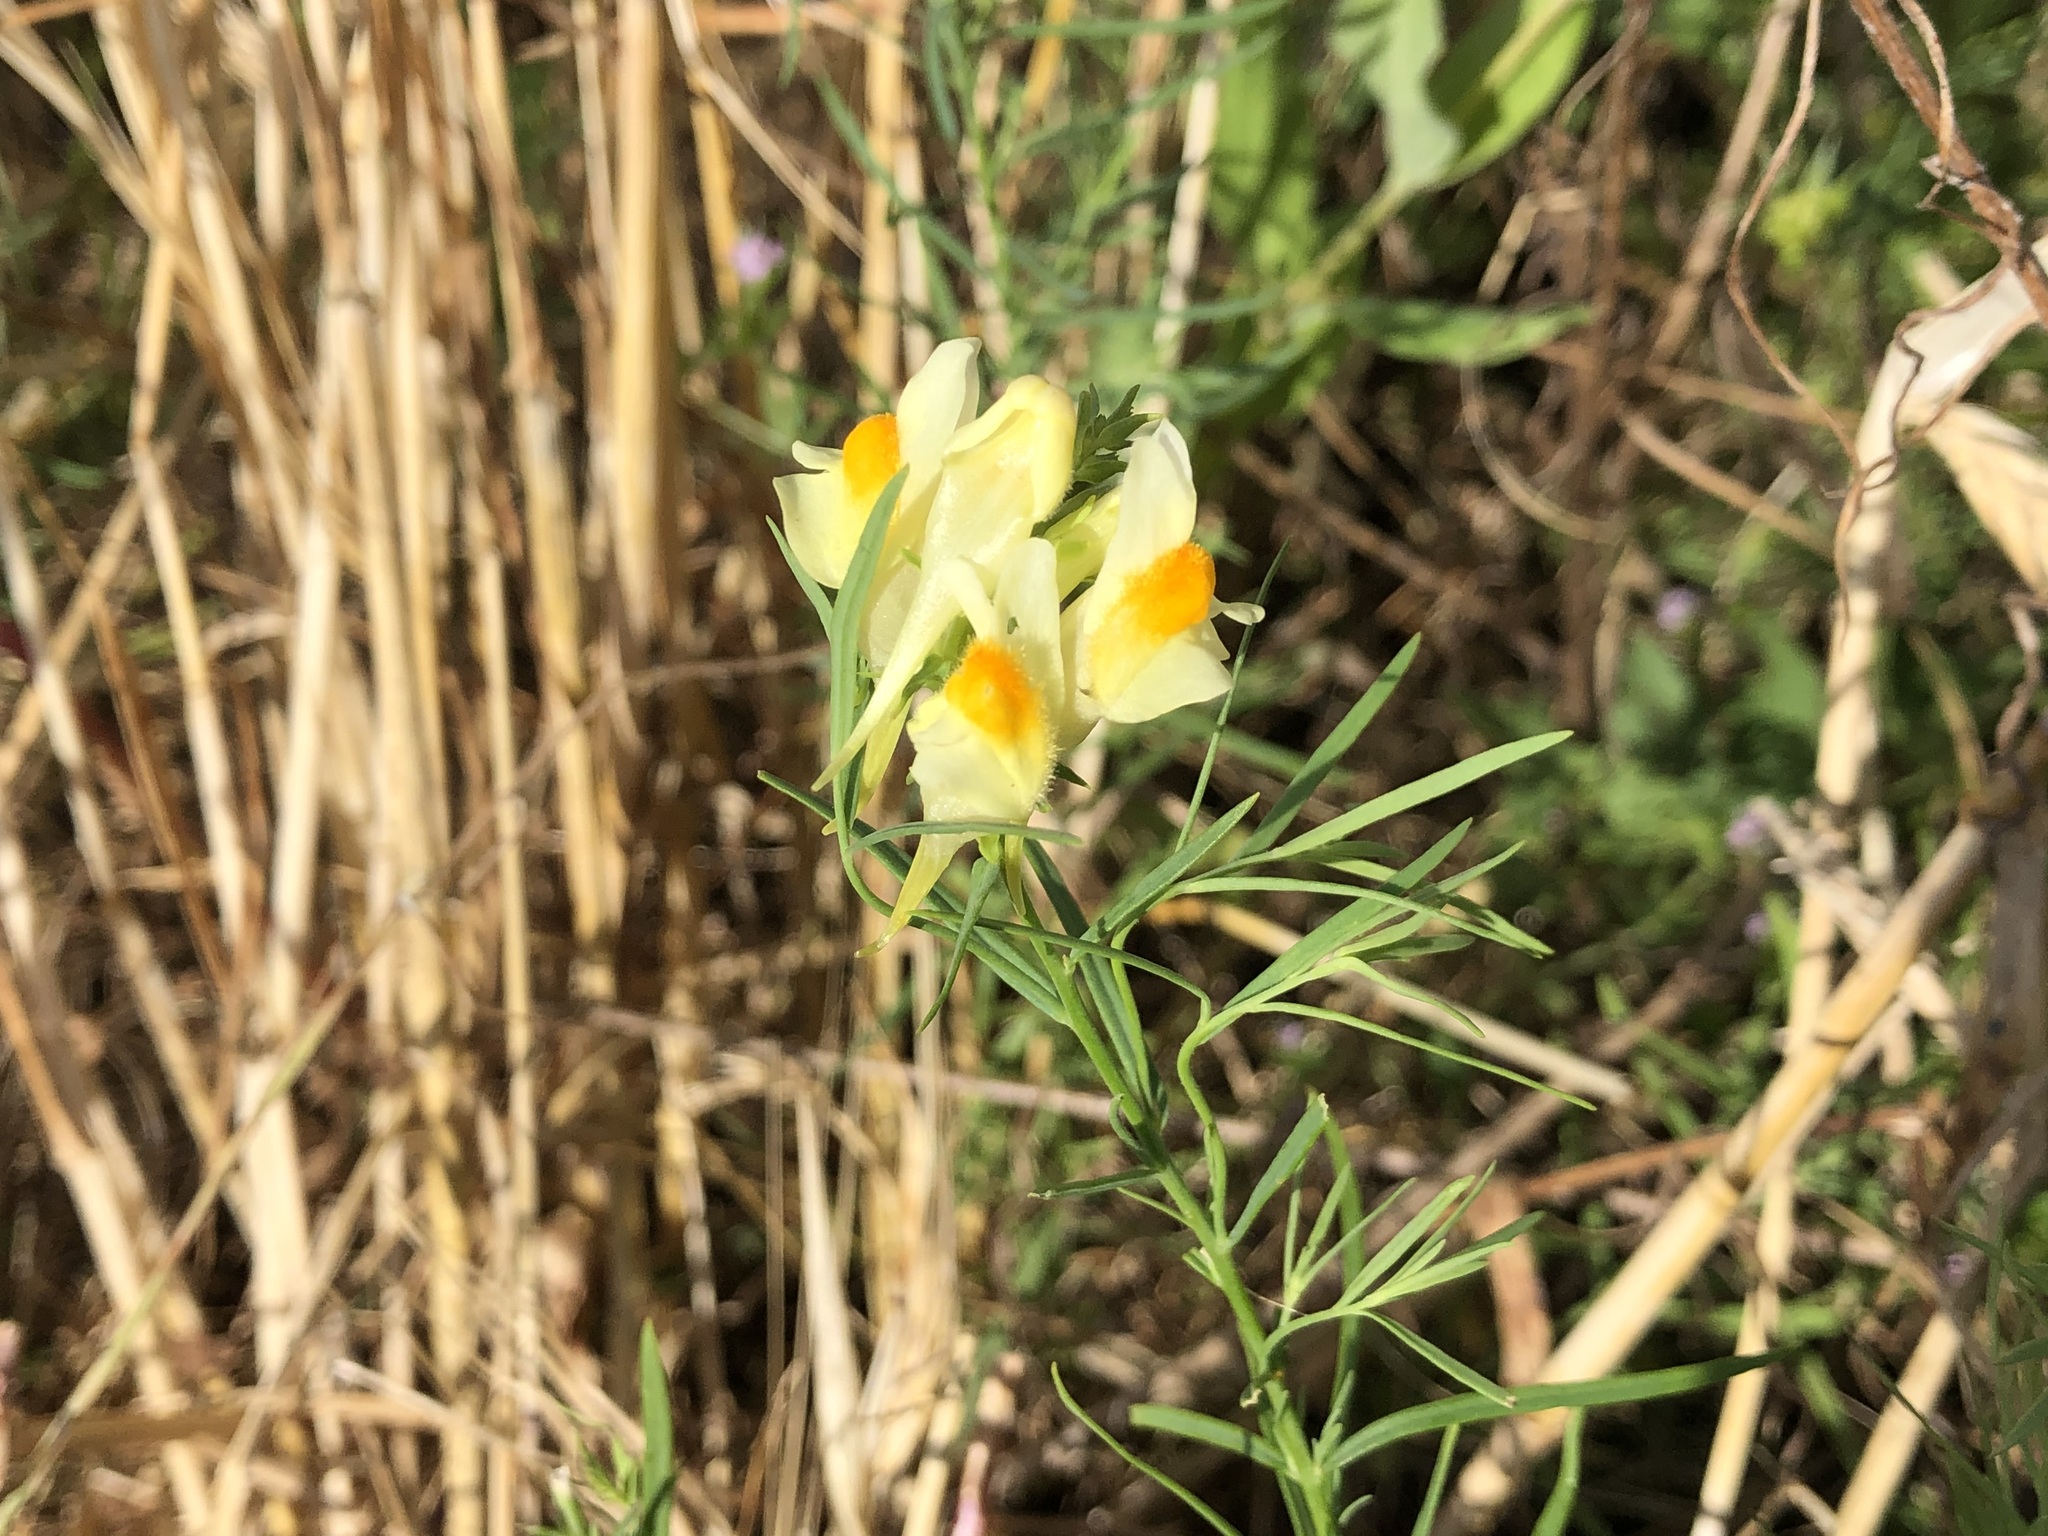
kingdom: Plantae
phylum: Tracheophyta
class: Magnoliopsida
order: Lamiales
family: Plantaginaceae
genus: Linaria
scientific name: Linaria vulgaris
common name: Butter and eggs
